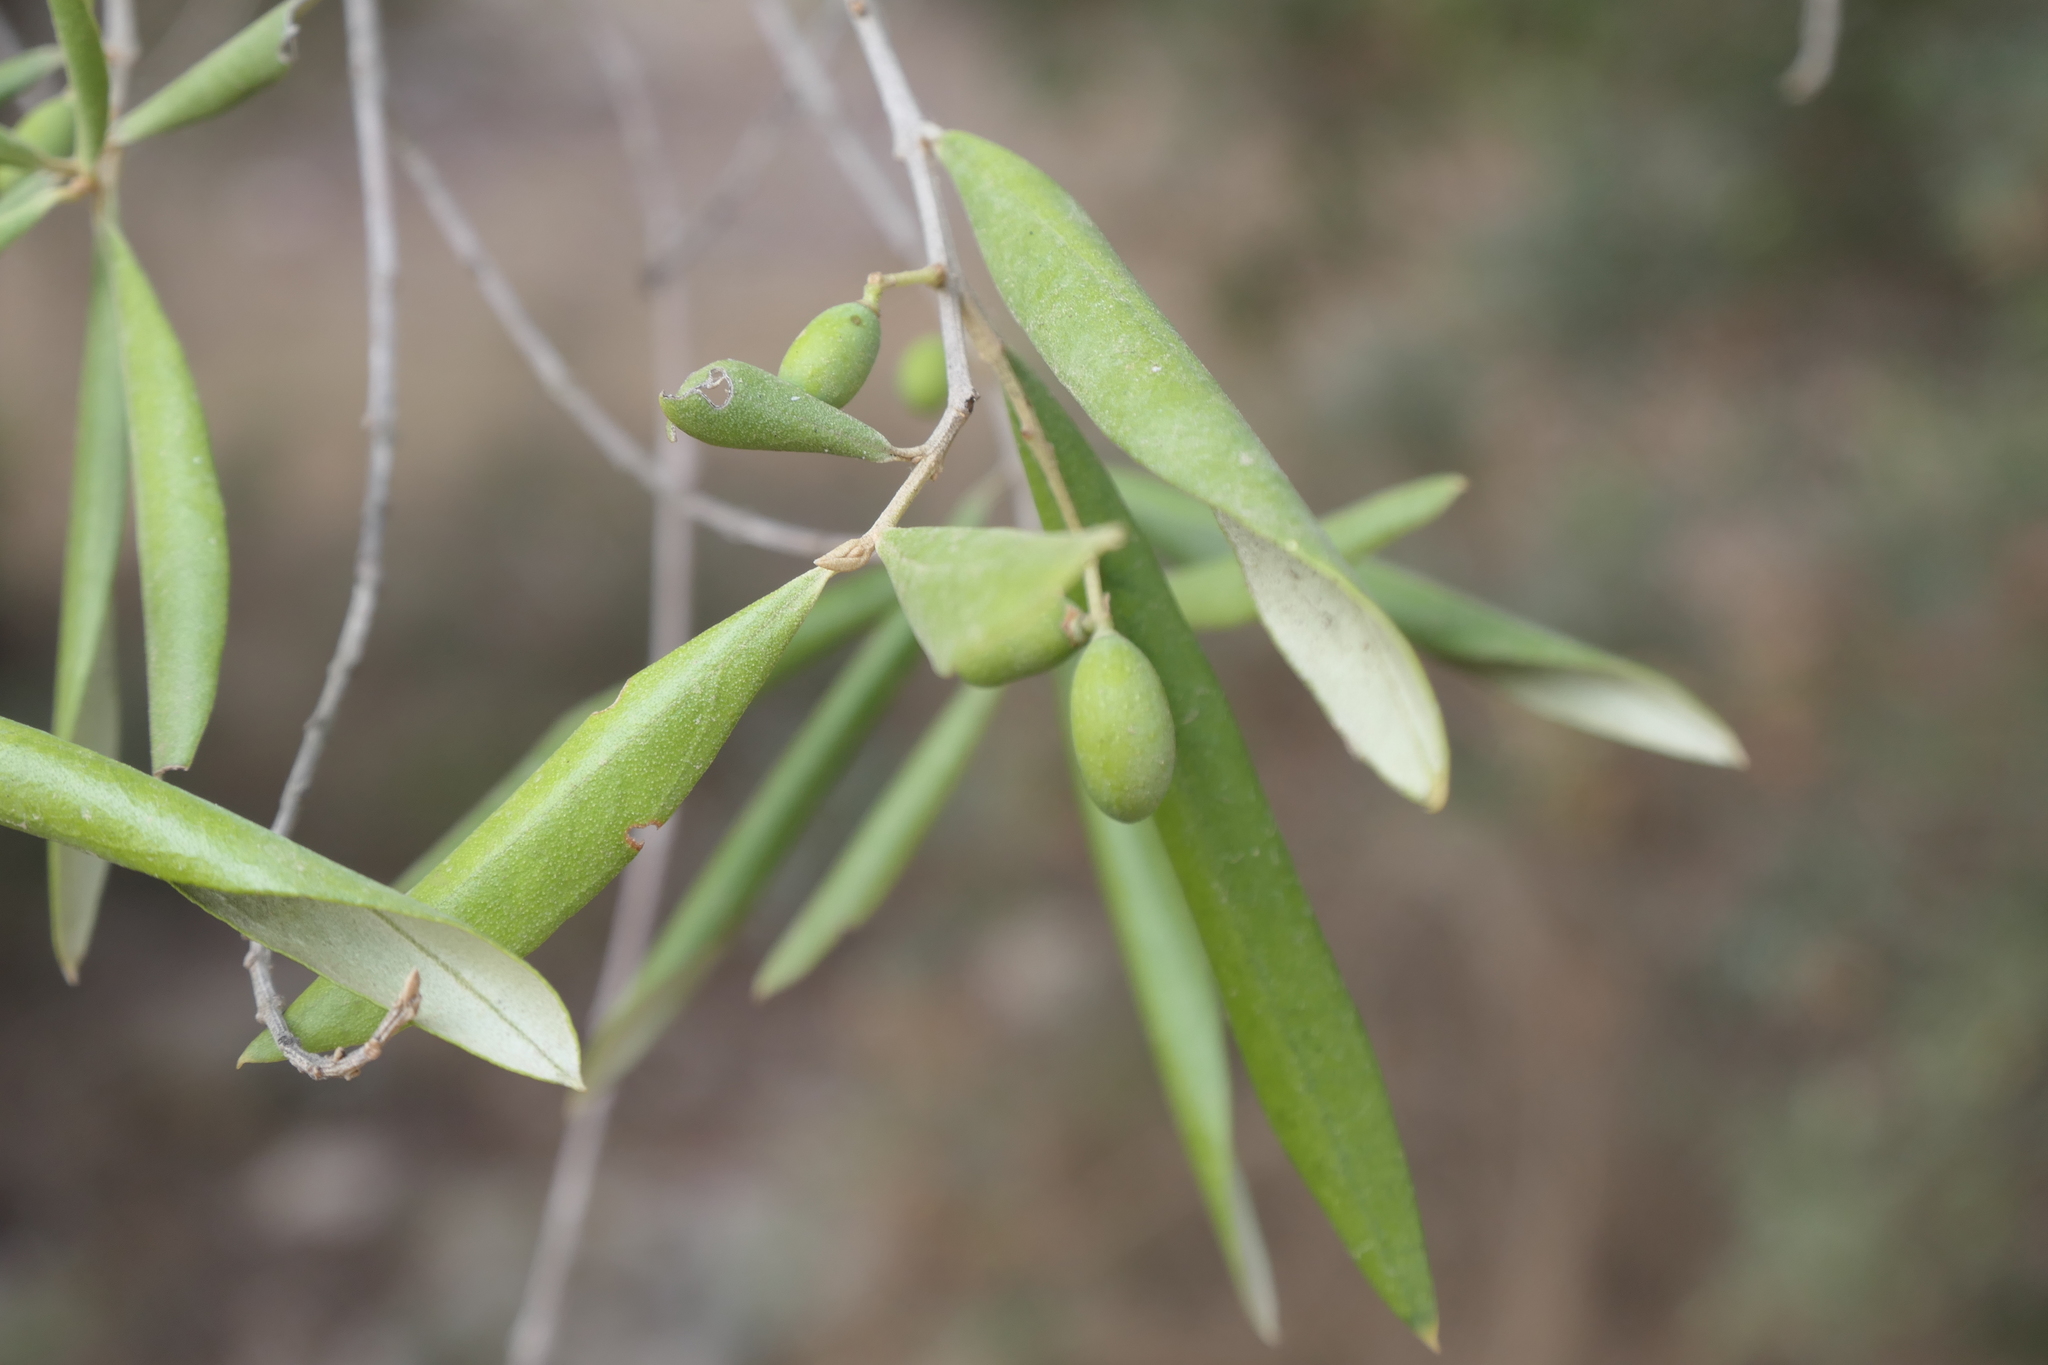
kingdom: Plantae
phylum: Tracheophyta
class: Magnoliopsida
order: Lamiales
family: Oleaceae
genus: Olea
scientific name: Olea europaea
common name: Olive
